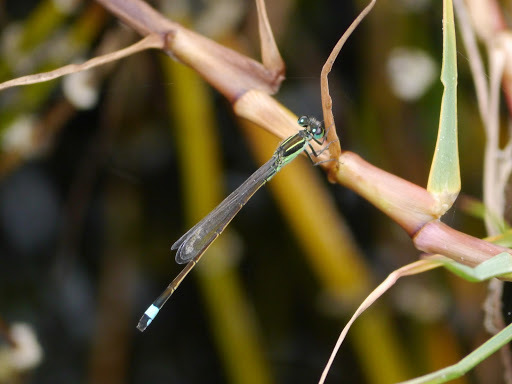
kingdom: Animalia
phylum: Arthropoda
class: Insecta
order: Odonata
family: Coenagrionidae
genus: Ischnura
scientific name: Ischnura ramburii
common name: Rambur's forktail
